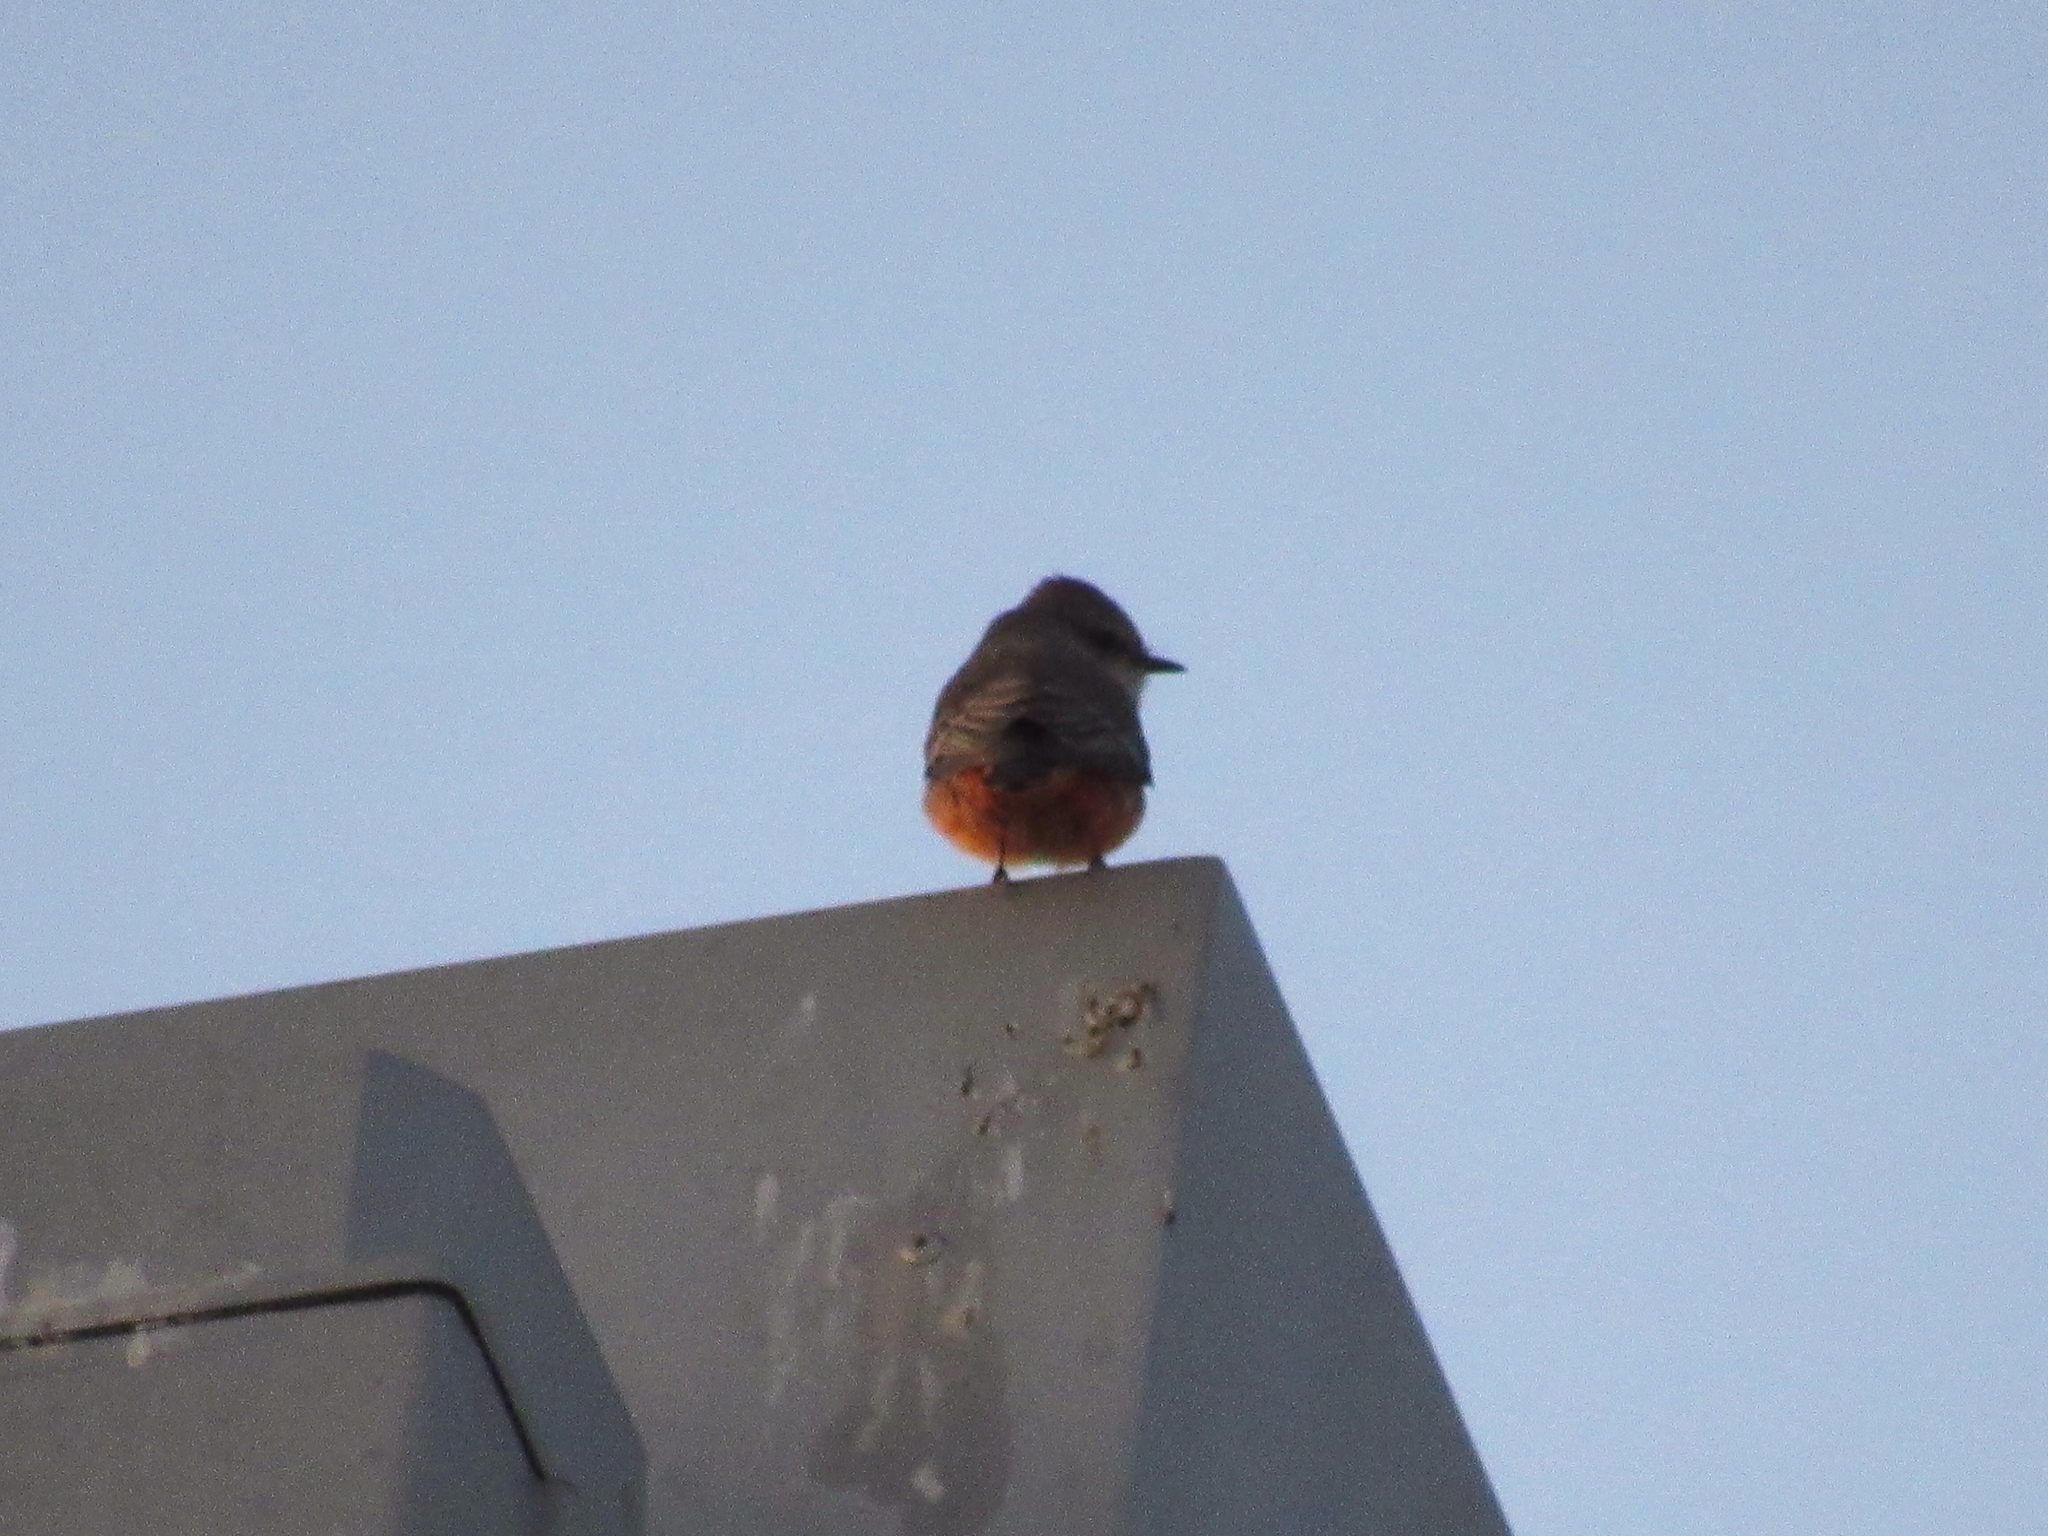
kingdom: Animalia
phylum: Chordata
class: Aves
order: Passeriformes
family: Tyrannidae
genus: Pyrocephalus
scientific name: Pyrocephalus rubinus
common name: Vermilion flycatcher
